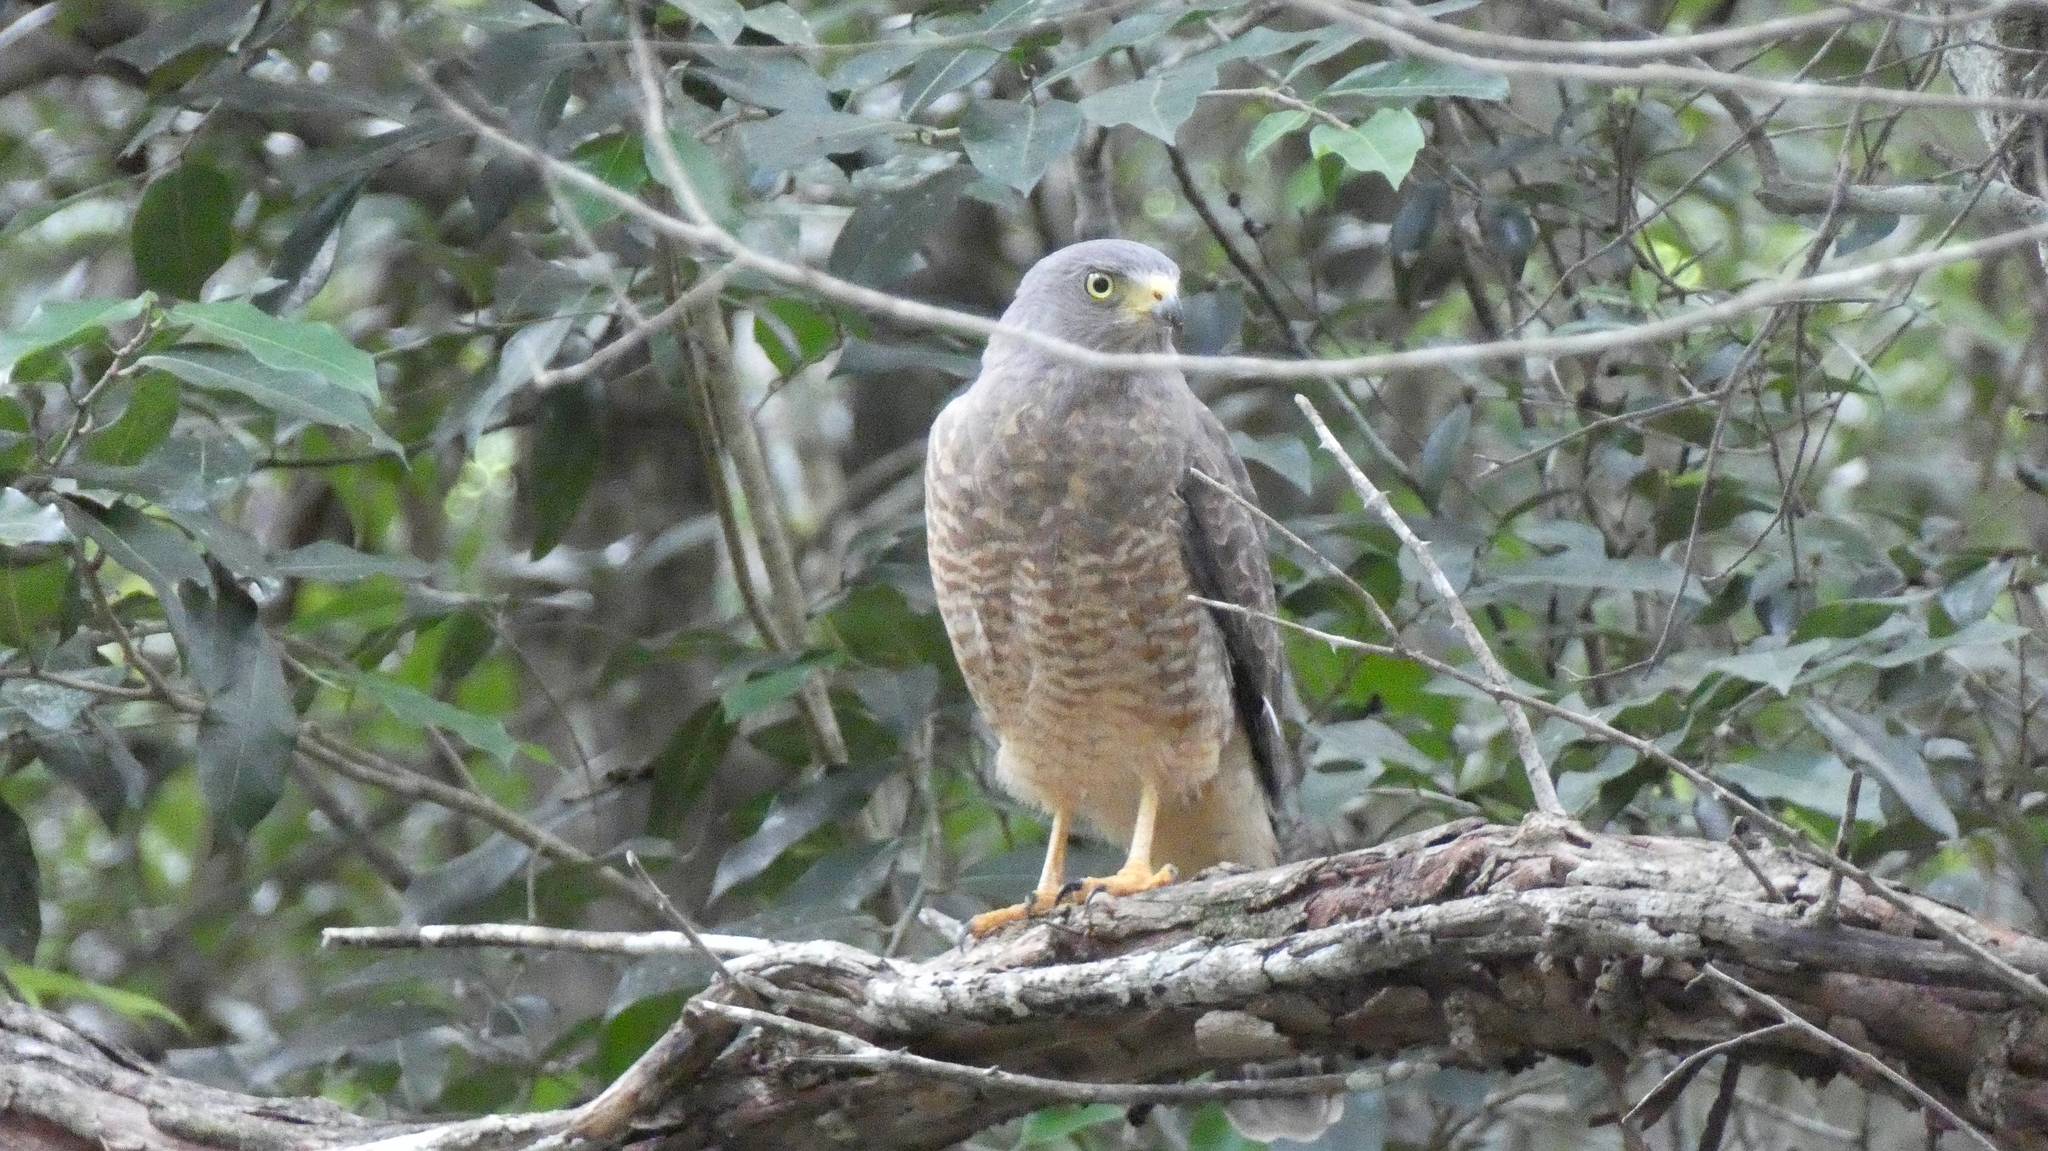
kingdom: Animalia
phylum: Chordata
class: Aves
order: Accipitriformes
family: Accipitridae
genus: Rupornis
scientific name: Rupornis magnirostris
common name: Roadside hawk
